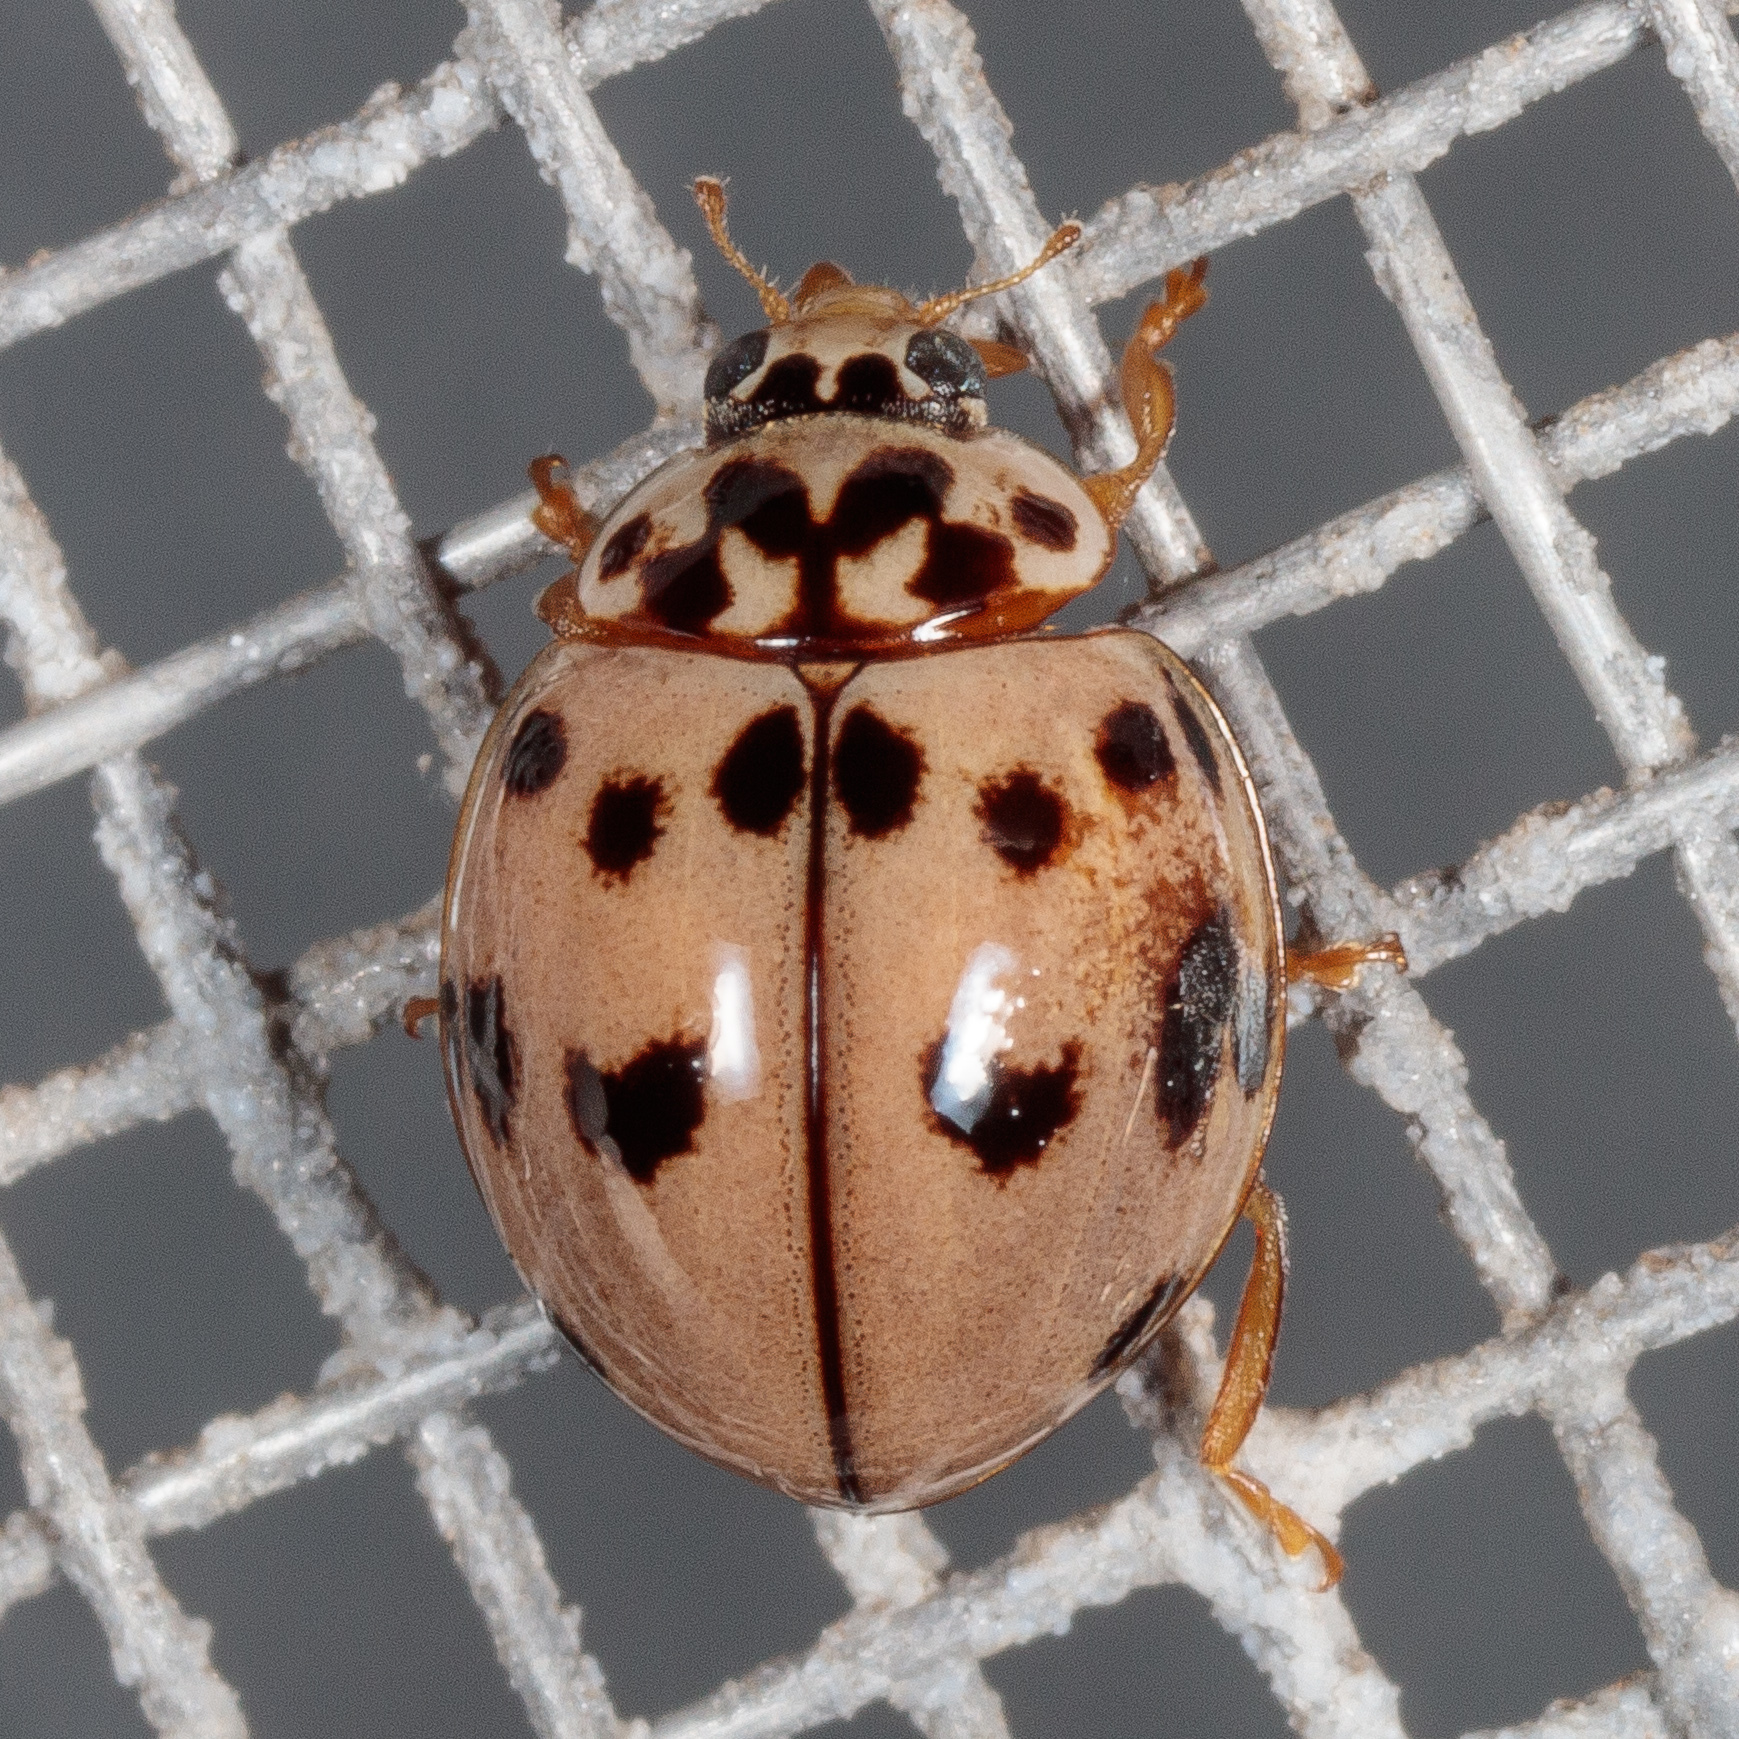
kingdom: Animalia
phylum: Arthropoda
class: Insecta
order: Coleoptera
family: Coccinellidae
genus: Olla
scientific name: Olla v-nigrum
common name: Ashy gray lady beetle
